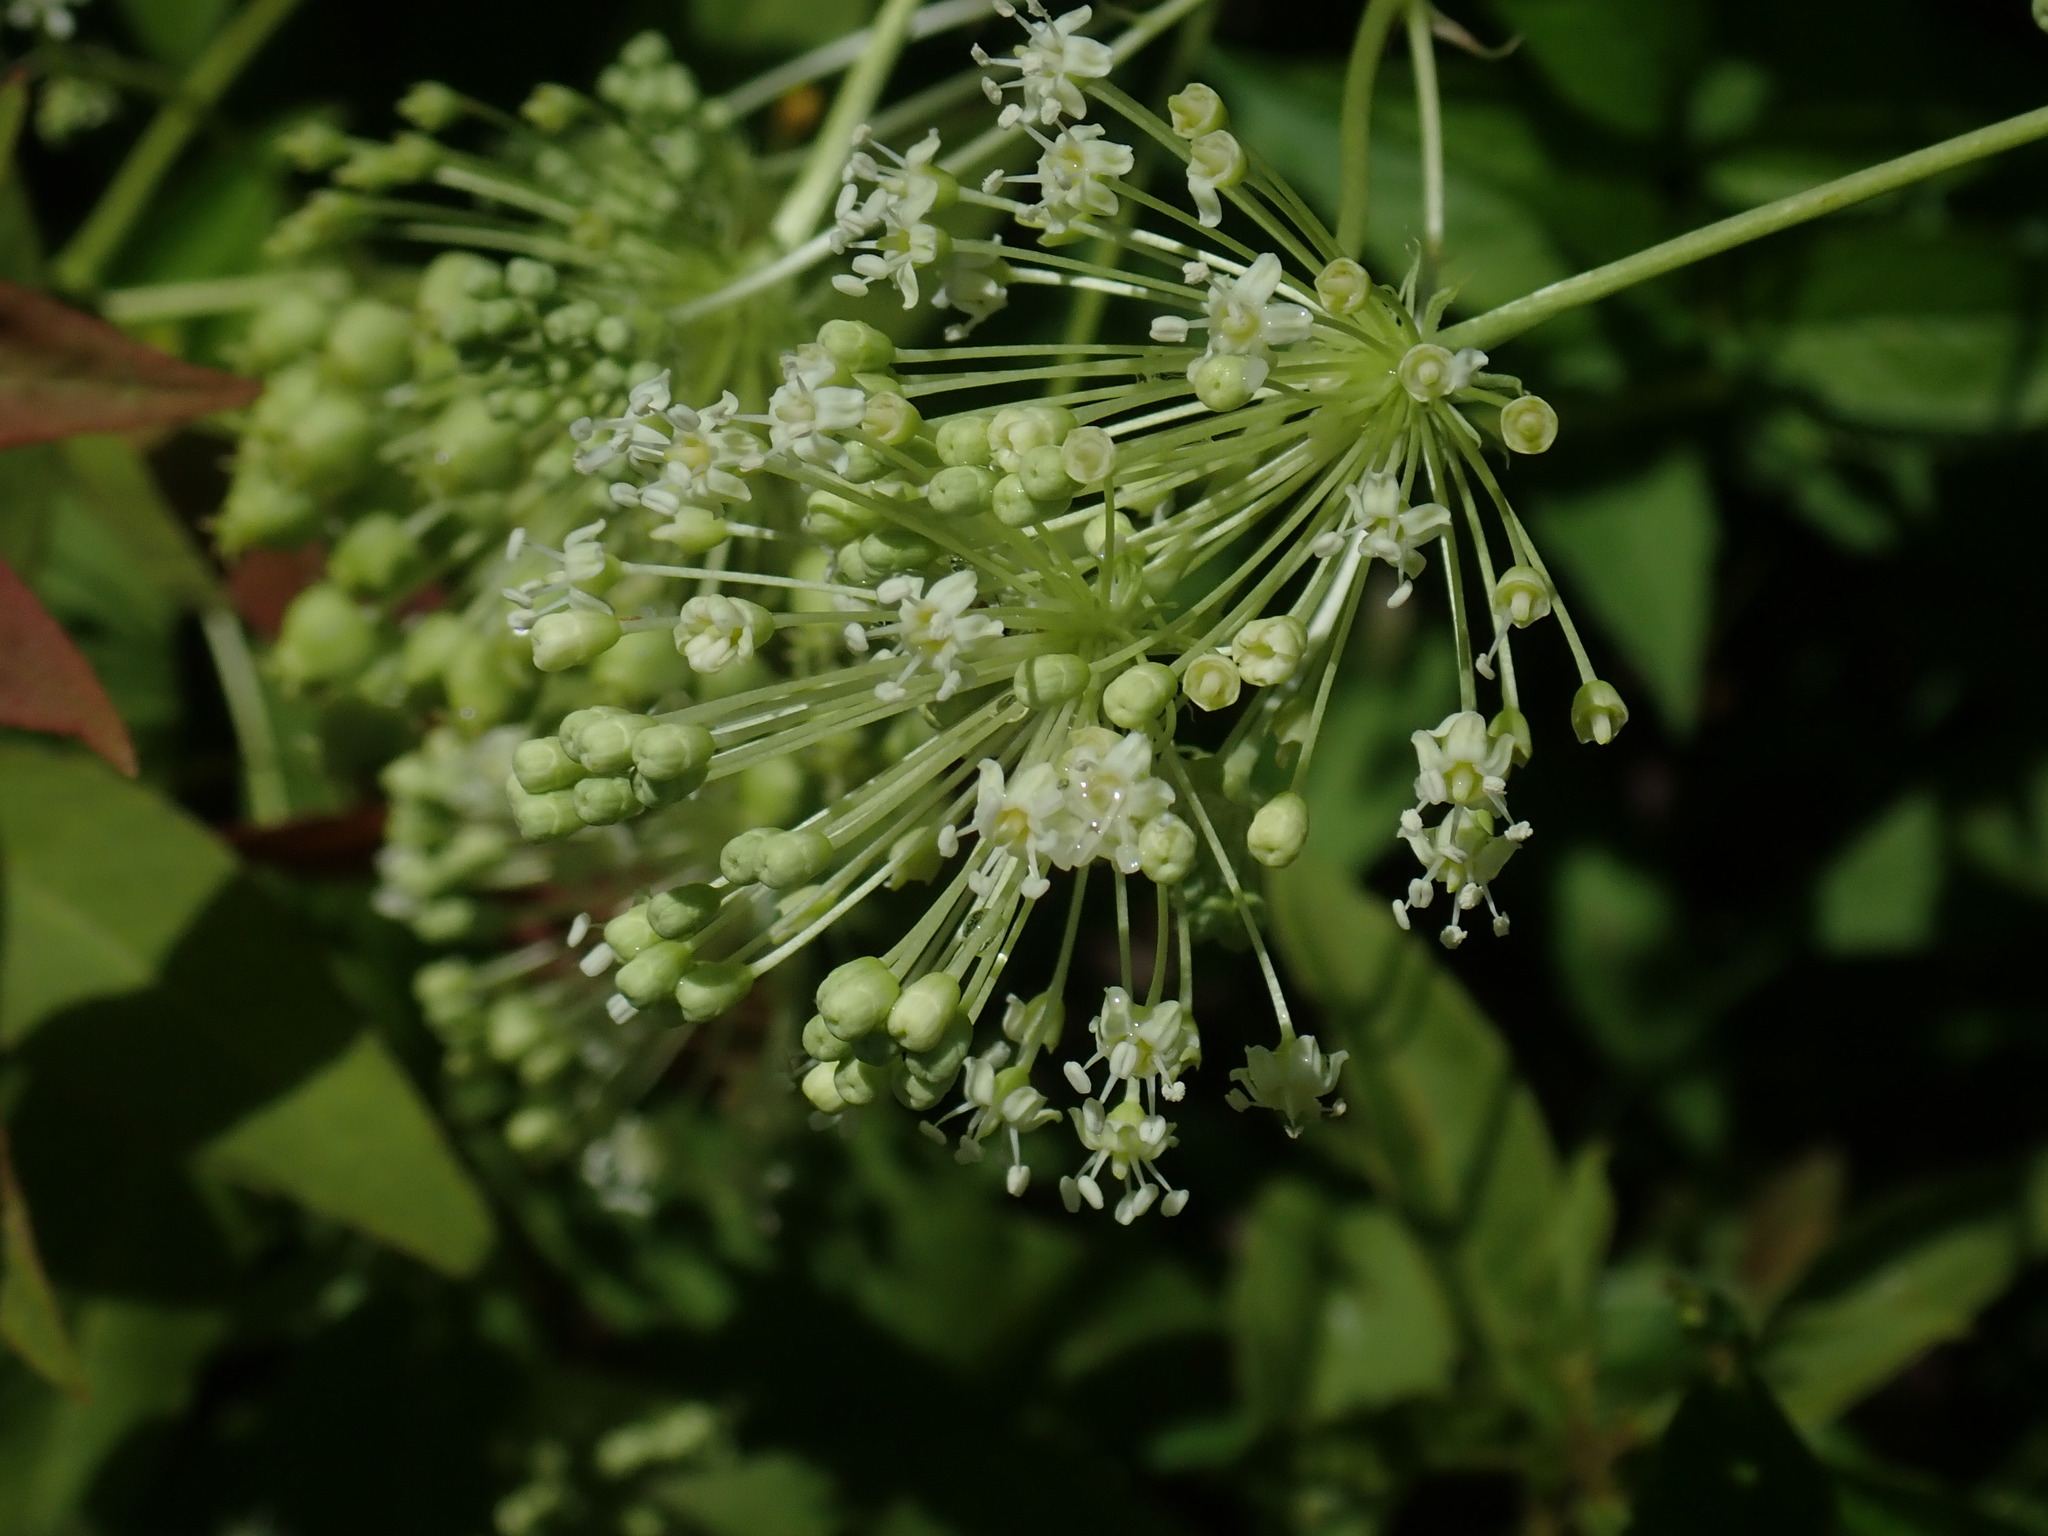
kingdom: Plantae
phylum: Tracheophyta
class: Magnoliopsida
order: Apiales
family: Araliaceae
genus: Aralia
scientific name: Aralia hispida
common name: Bristly sarsaparilla
